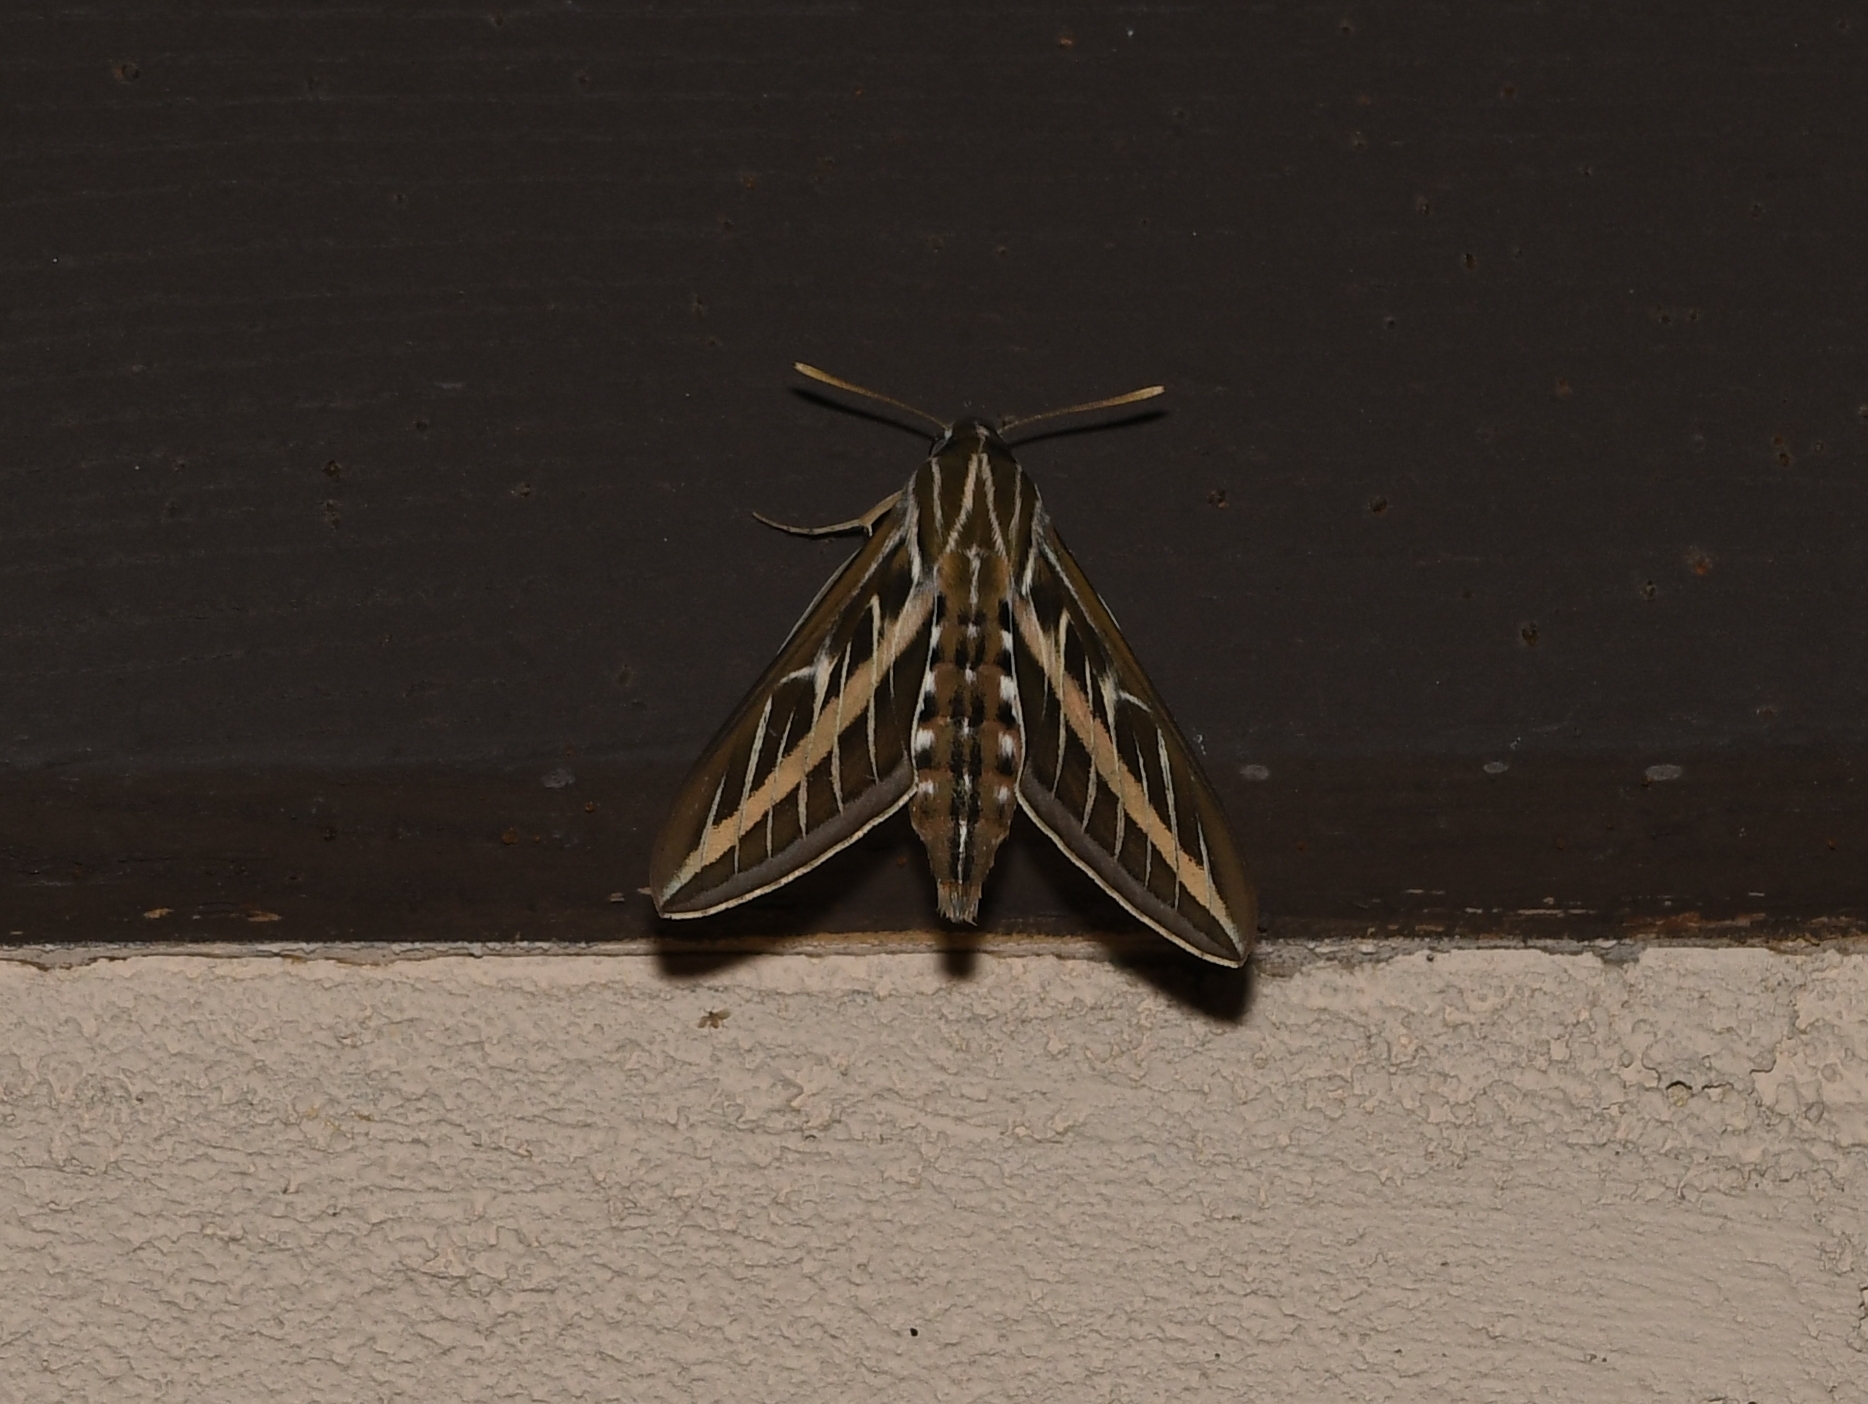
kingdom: Animalia
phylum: Arthropoda
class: Insecta
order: Lepidoptera
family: Sphingidae
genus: Hyles
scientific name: Hyles lineata
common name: White-lined sphinx
